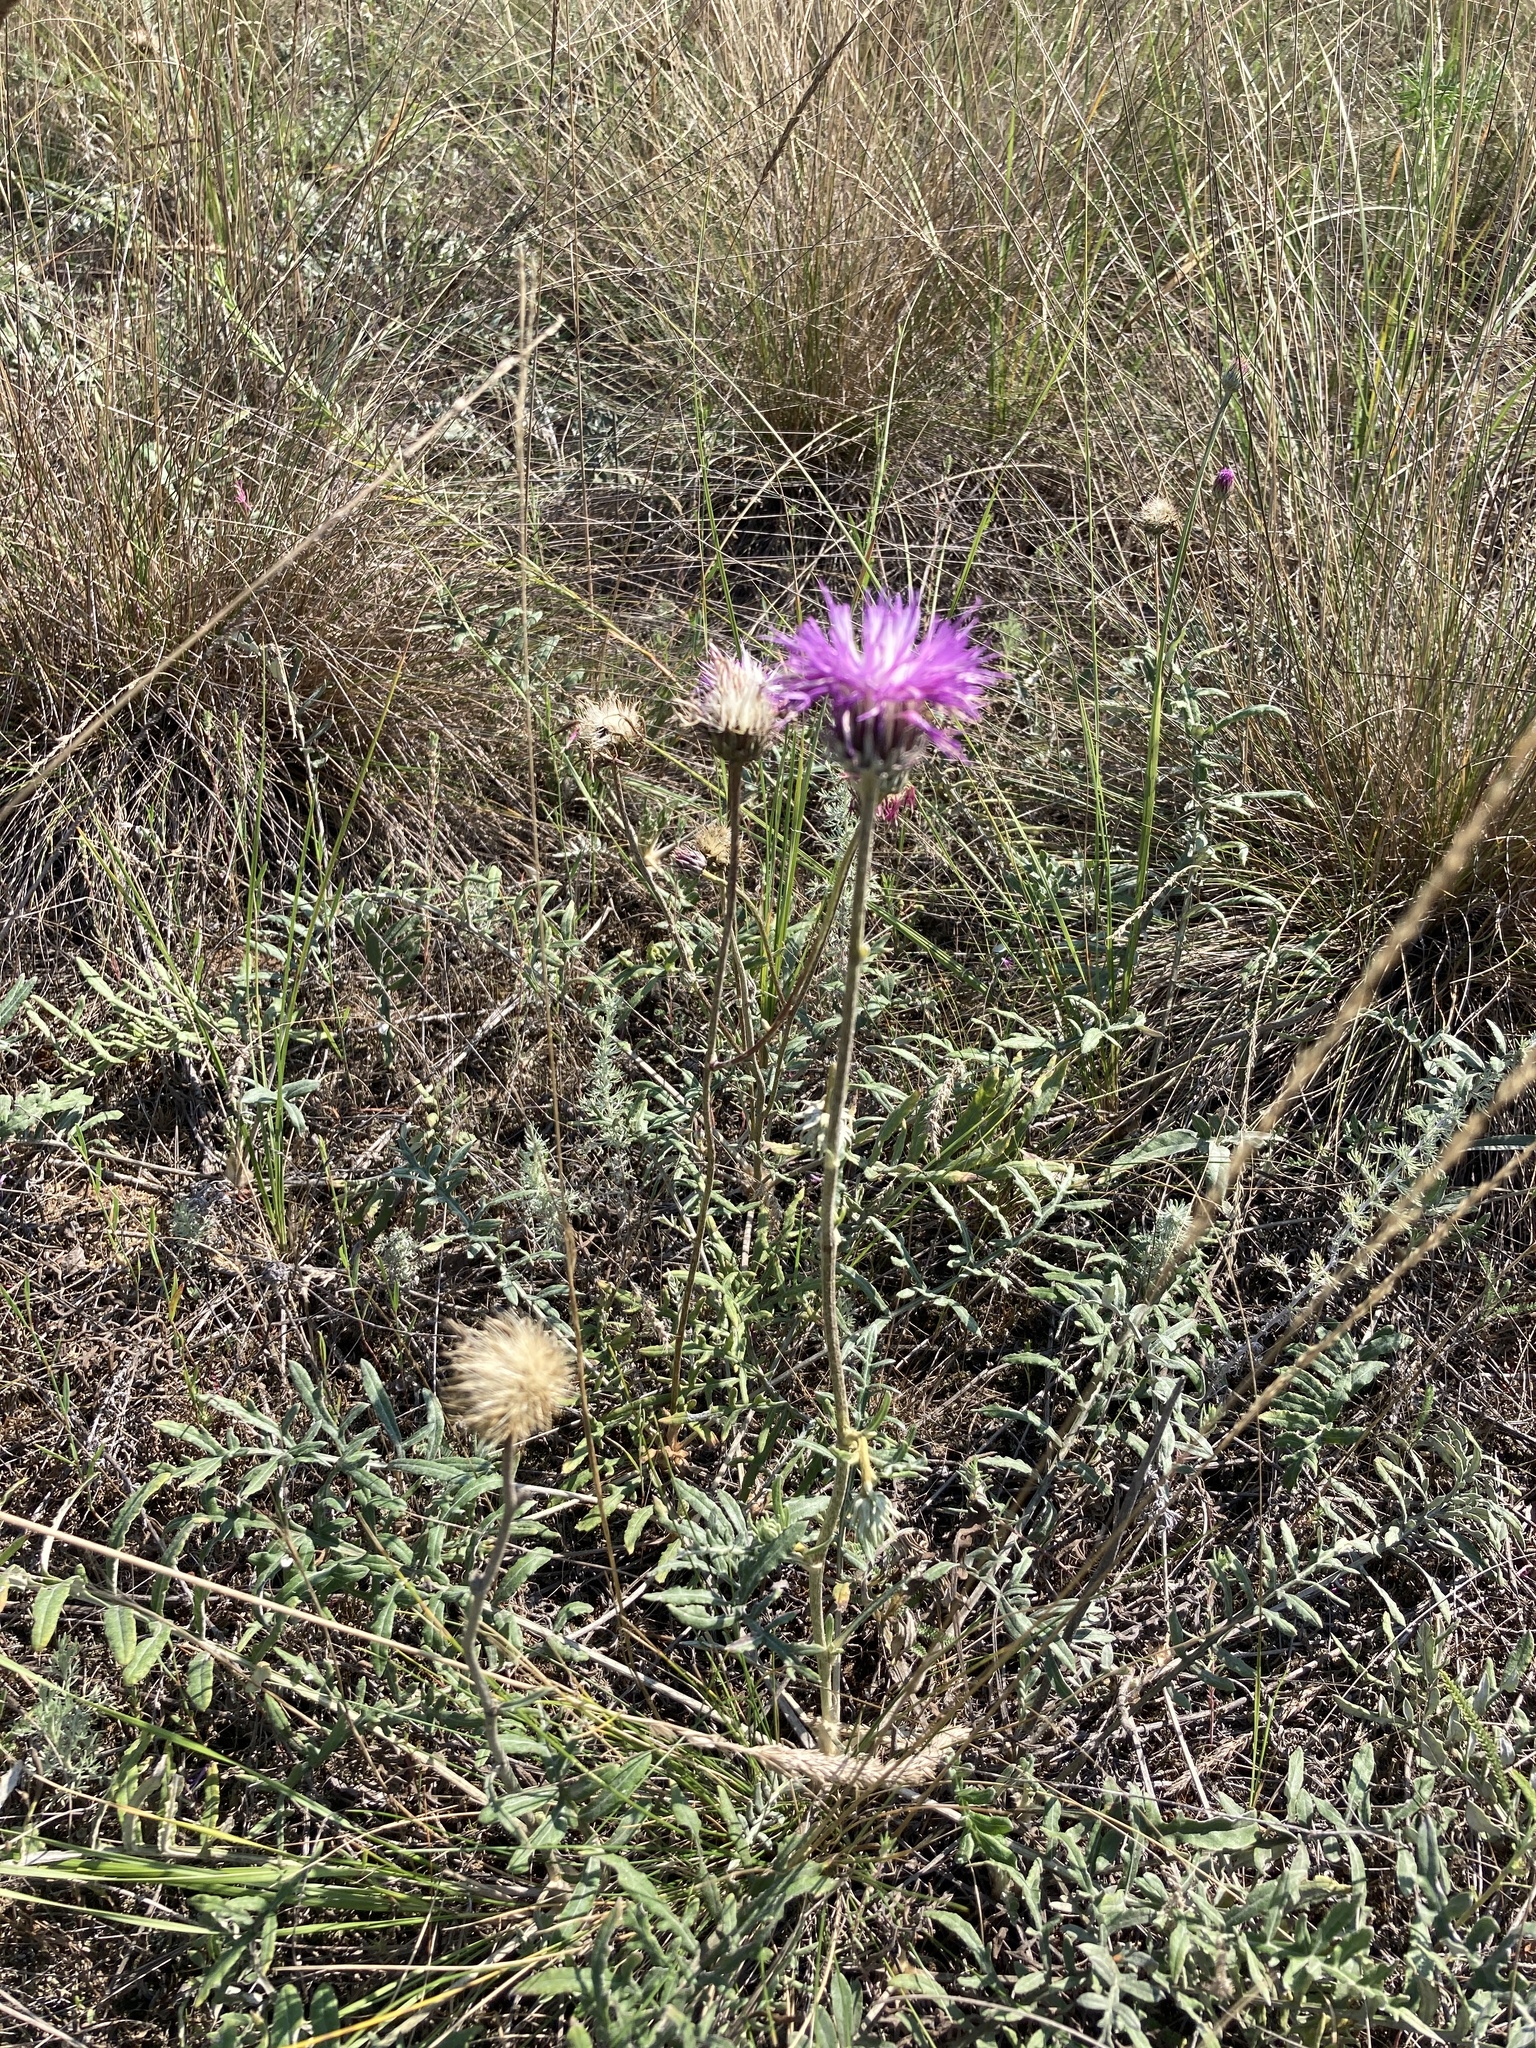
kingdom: Plantae
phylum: Tracheophyta
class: Magnoliopsida
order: Asterales
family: Asteraceae
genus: Jurinea
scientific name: Jurinea cyanoides
